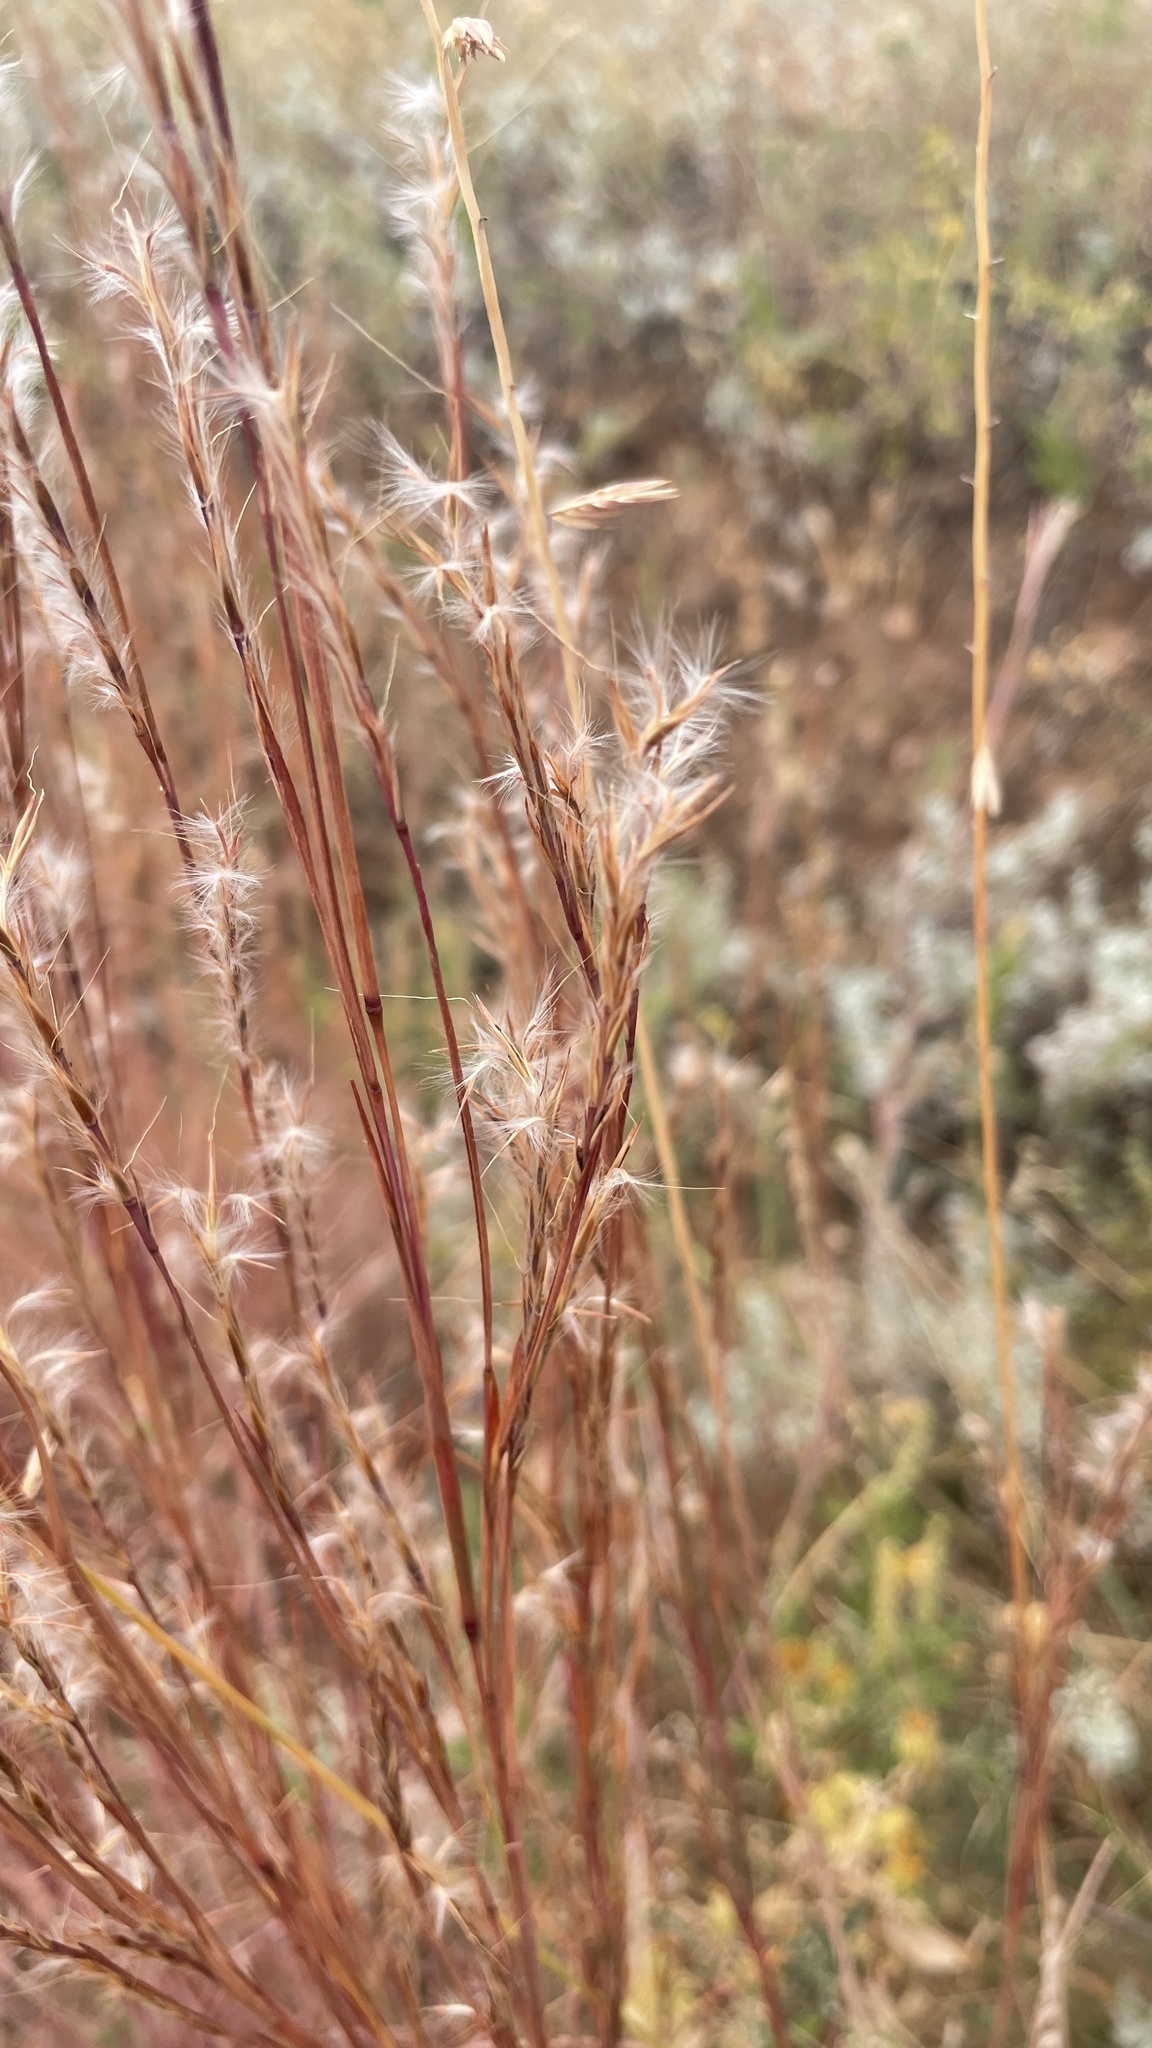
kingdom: Plantae
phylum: Tracheophyta
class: Liliopsida
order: Poales
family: Poaceae
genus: Schizachyrium
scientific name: Schizachyrium scoparium
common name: Little bluestem
